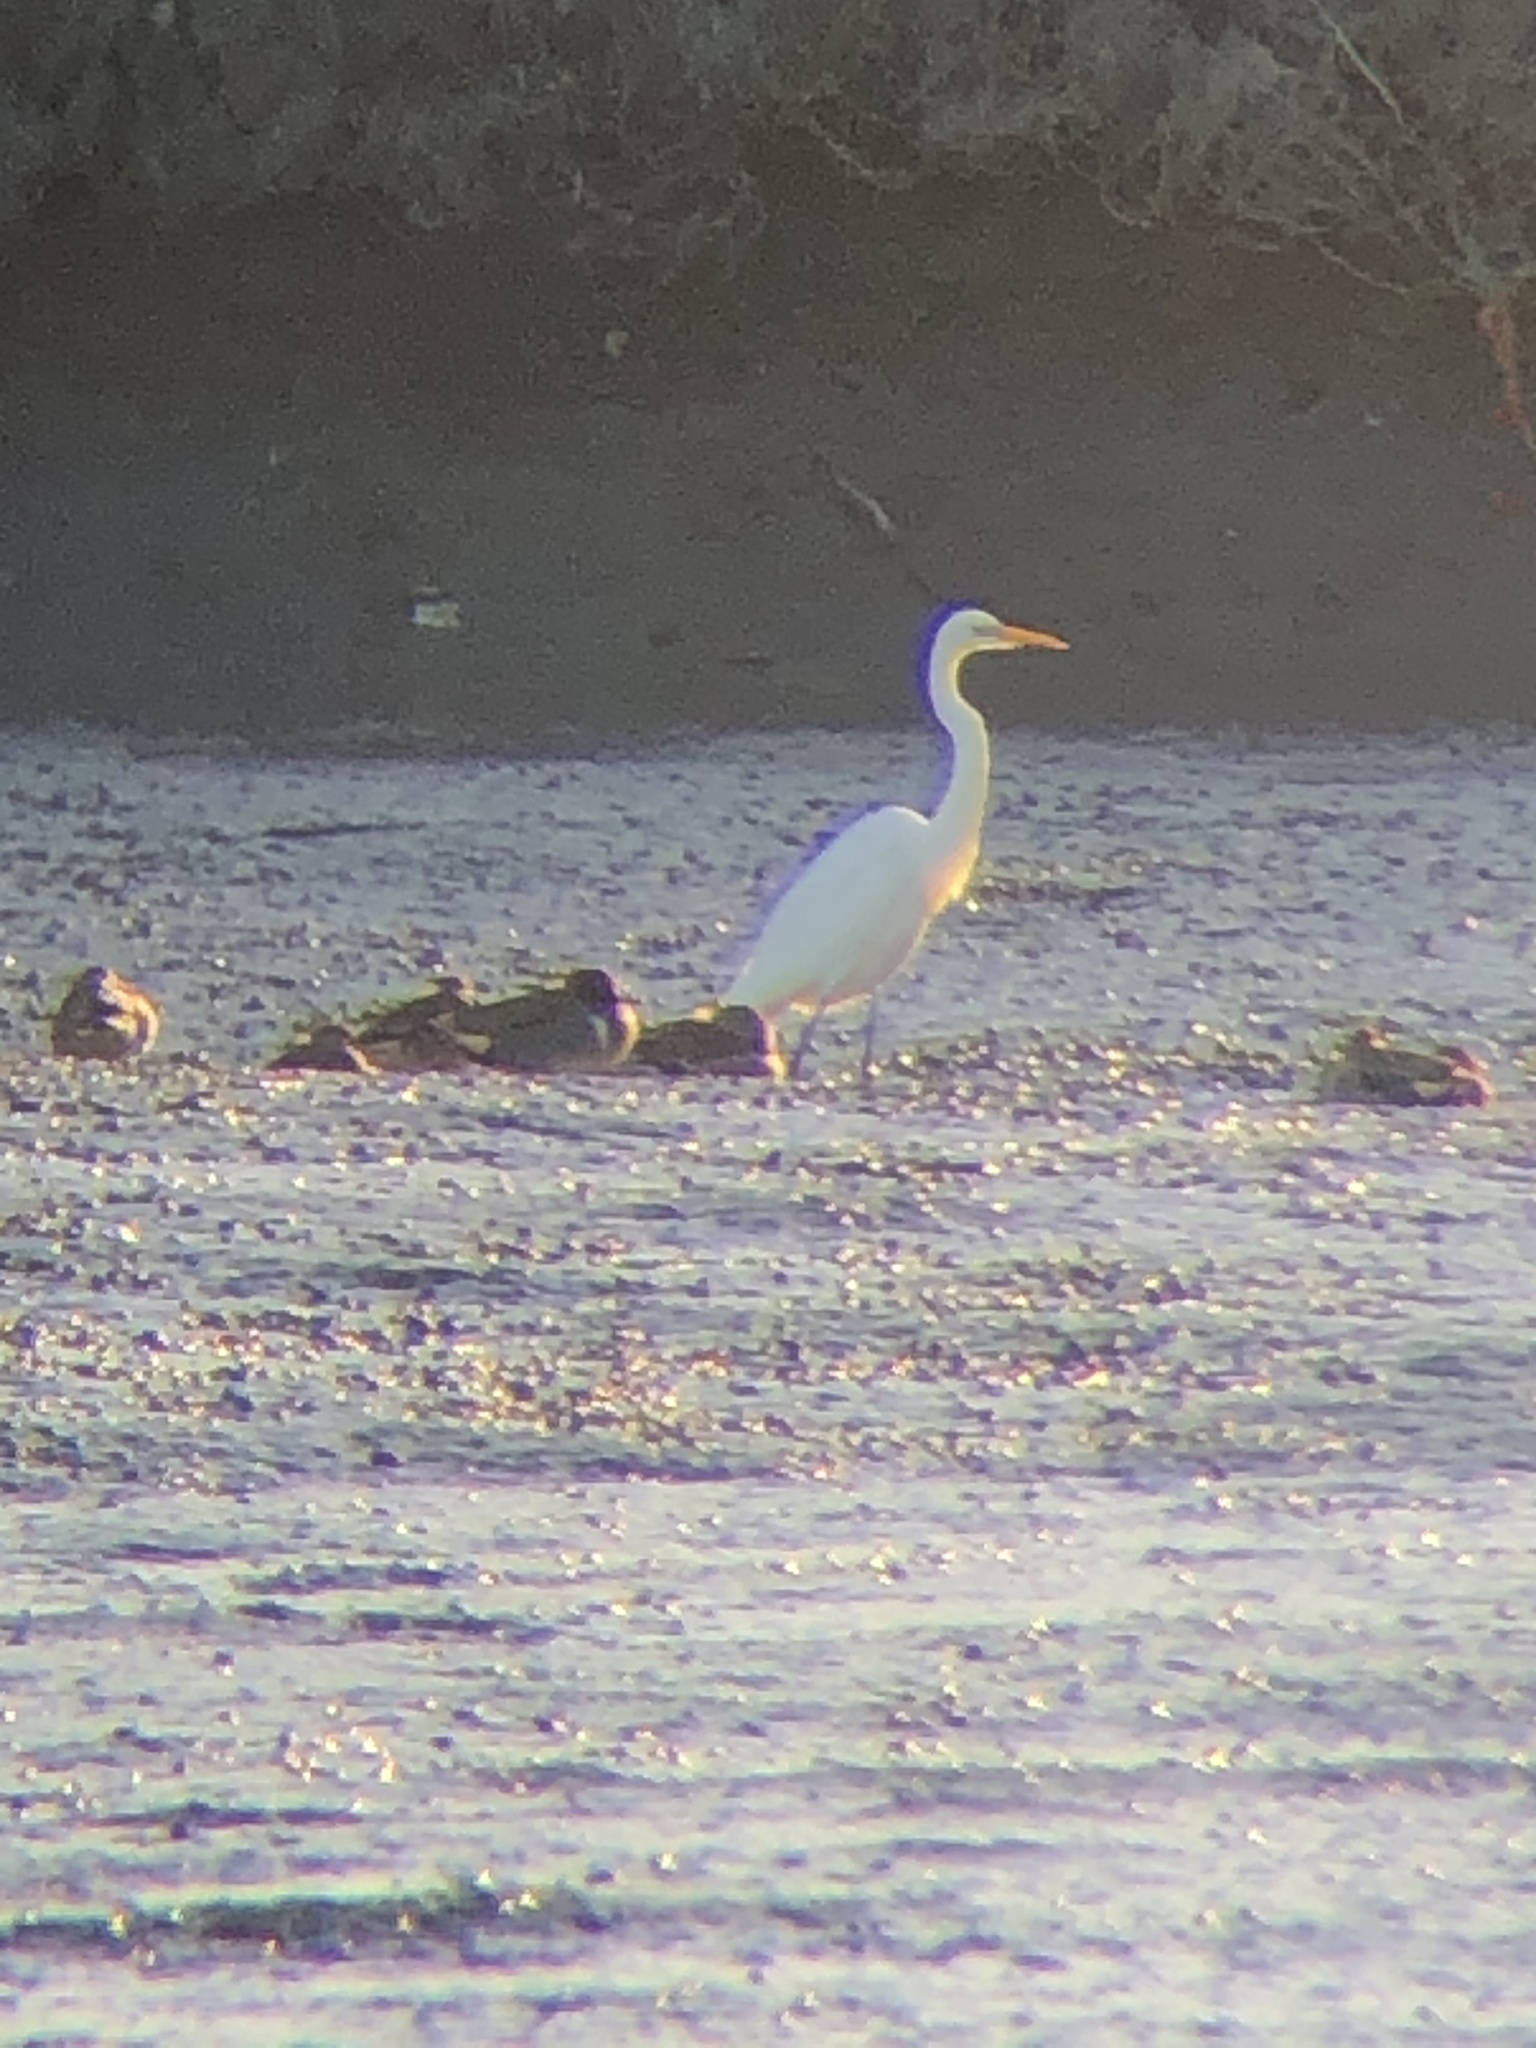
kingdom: Animalia
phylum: Chordata
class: Aves
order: Pelecaniformes
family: Ardeidae
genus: Ardea
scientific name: Ardea alba
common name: Great egret
